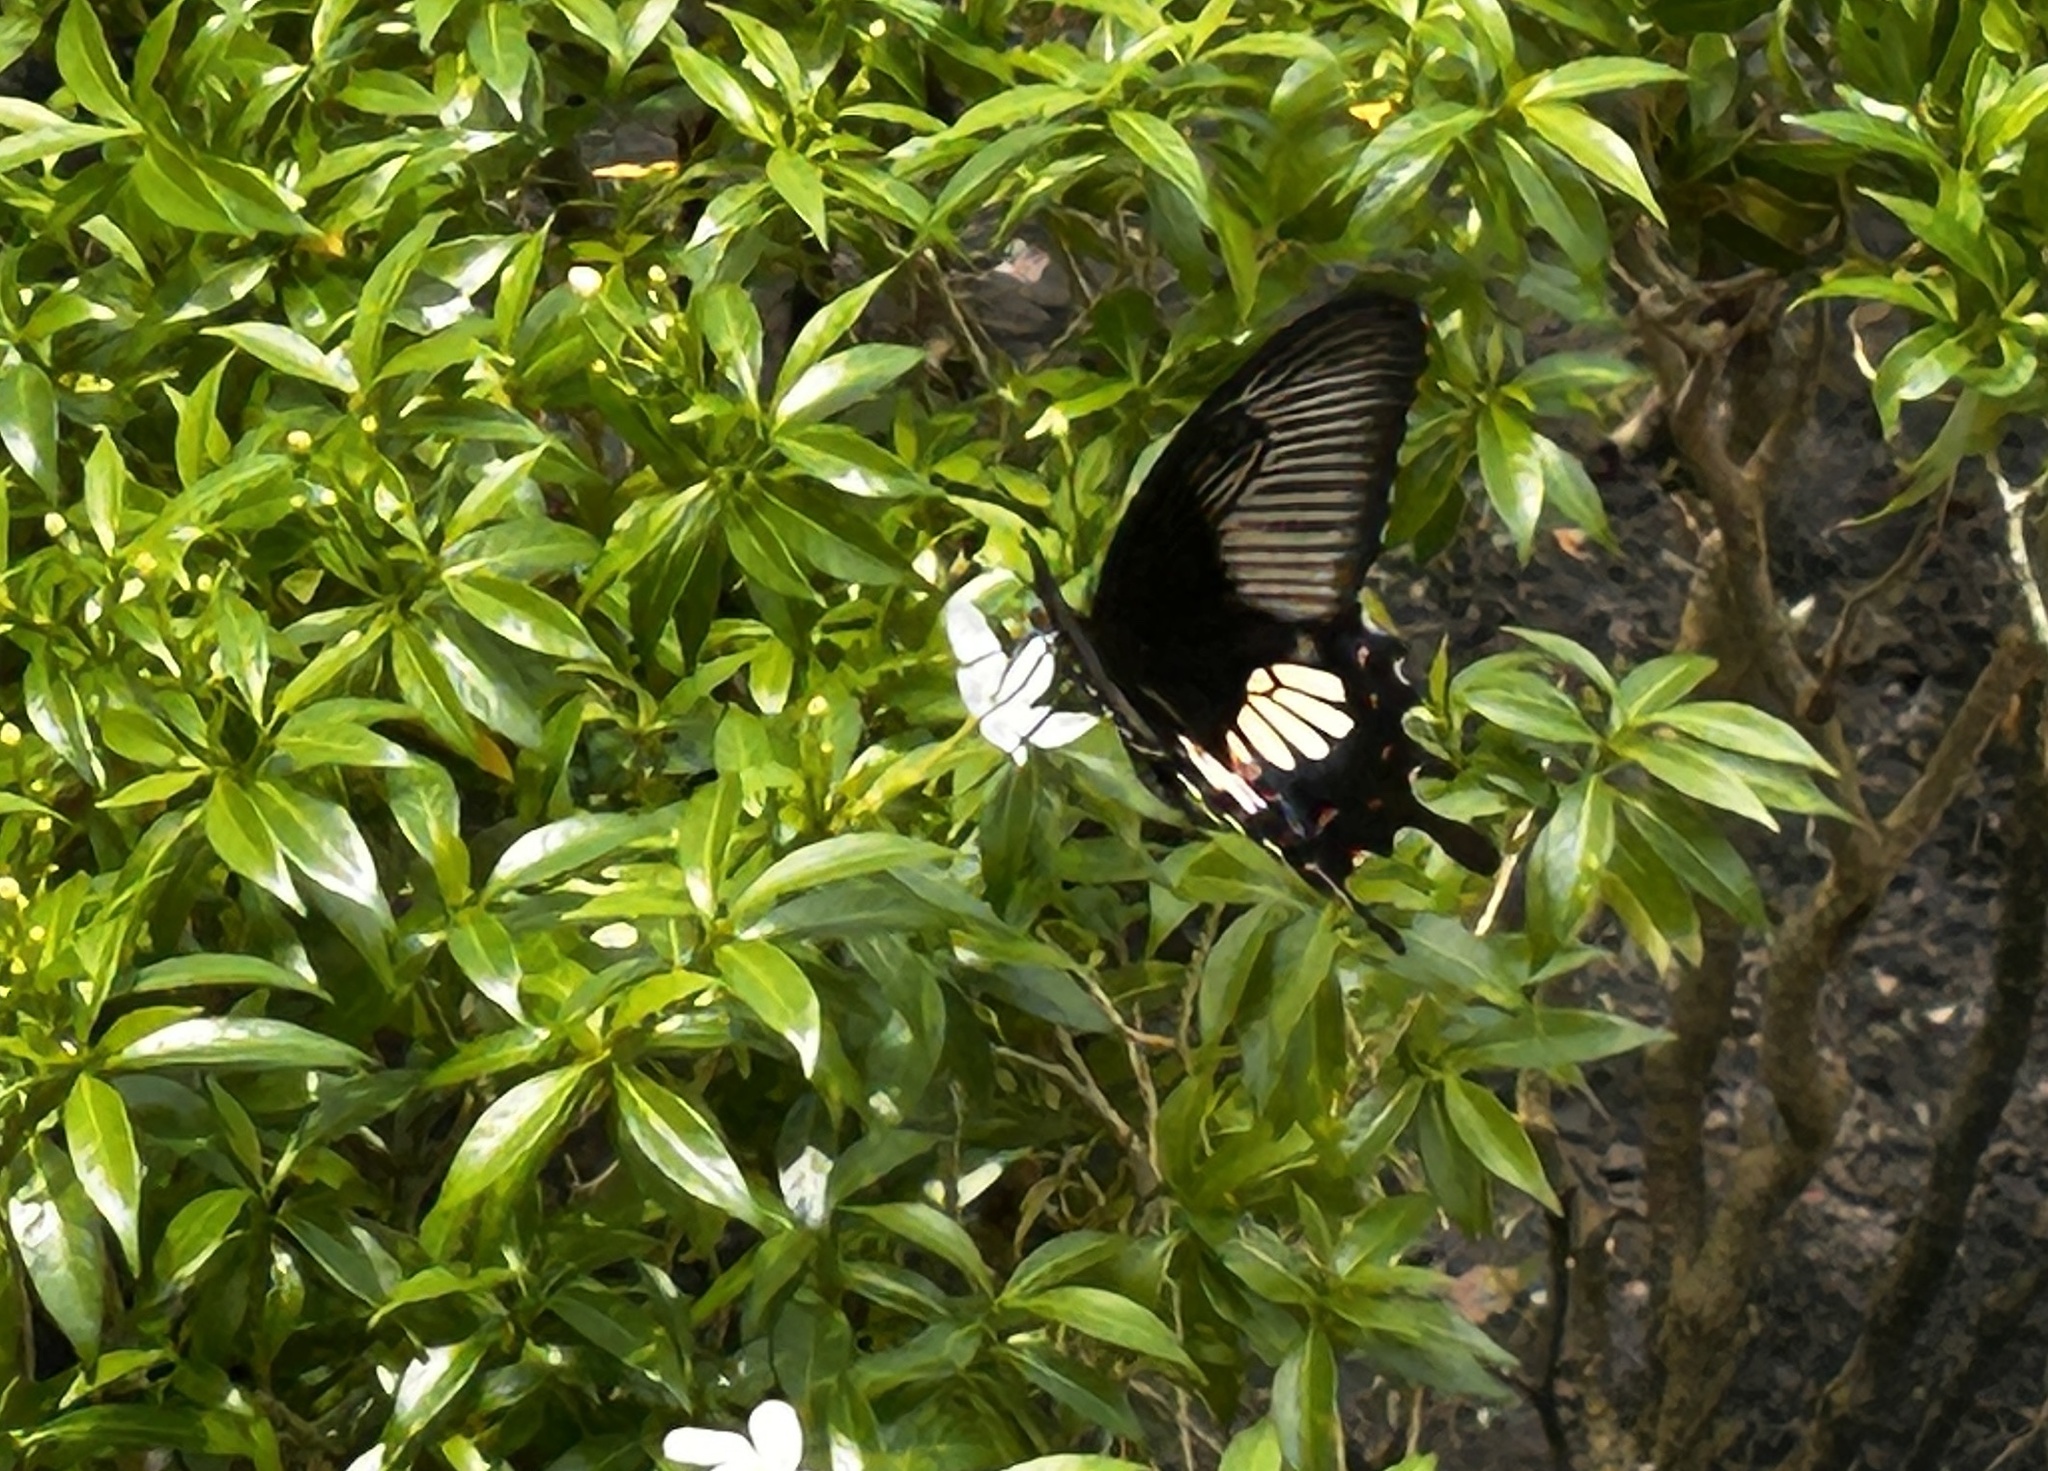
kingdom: Animalia
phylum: Arthropoda
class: Insecta
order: Lepidoptera
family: Papilionidae
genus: Papilio
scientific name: Papilio polytes
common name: Common mormon
